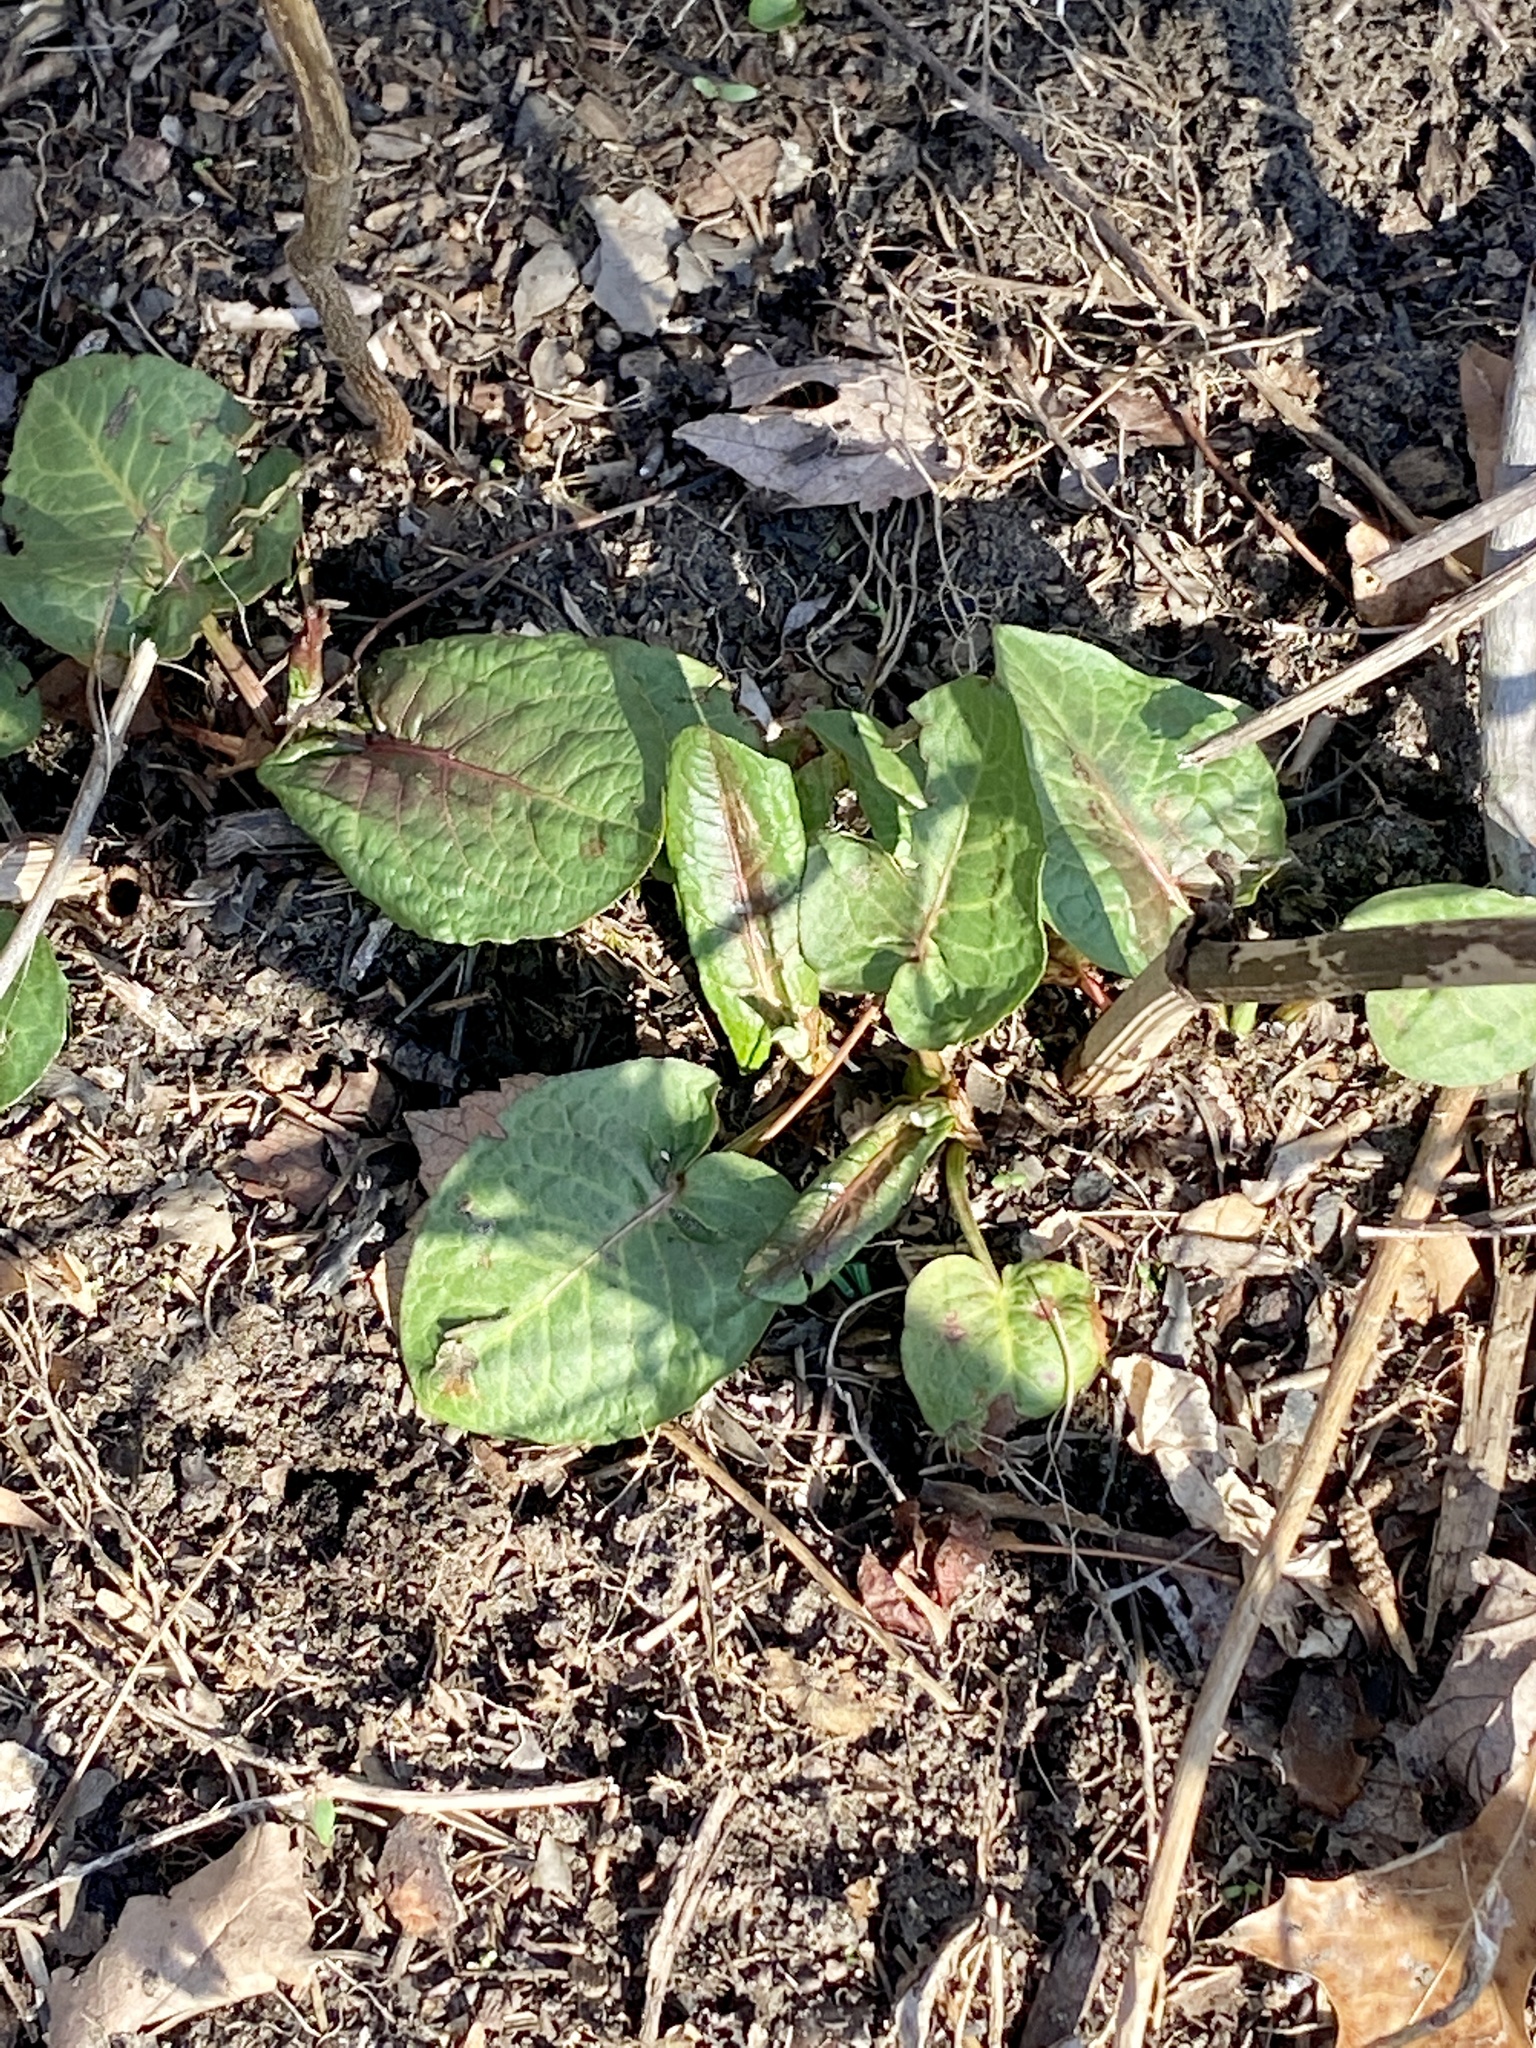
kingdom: Plantae
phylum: Tracheophyta
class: Magnoliopsida
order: Caryophyllales
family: Polygonaceae
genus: Rumex
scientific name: Rumex obtusifolius
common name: Bitter dock
